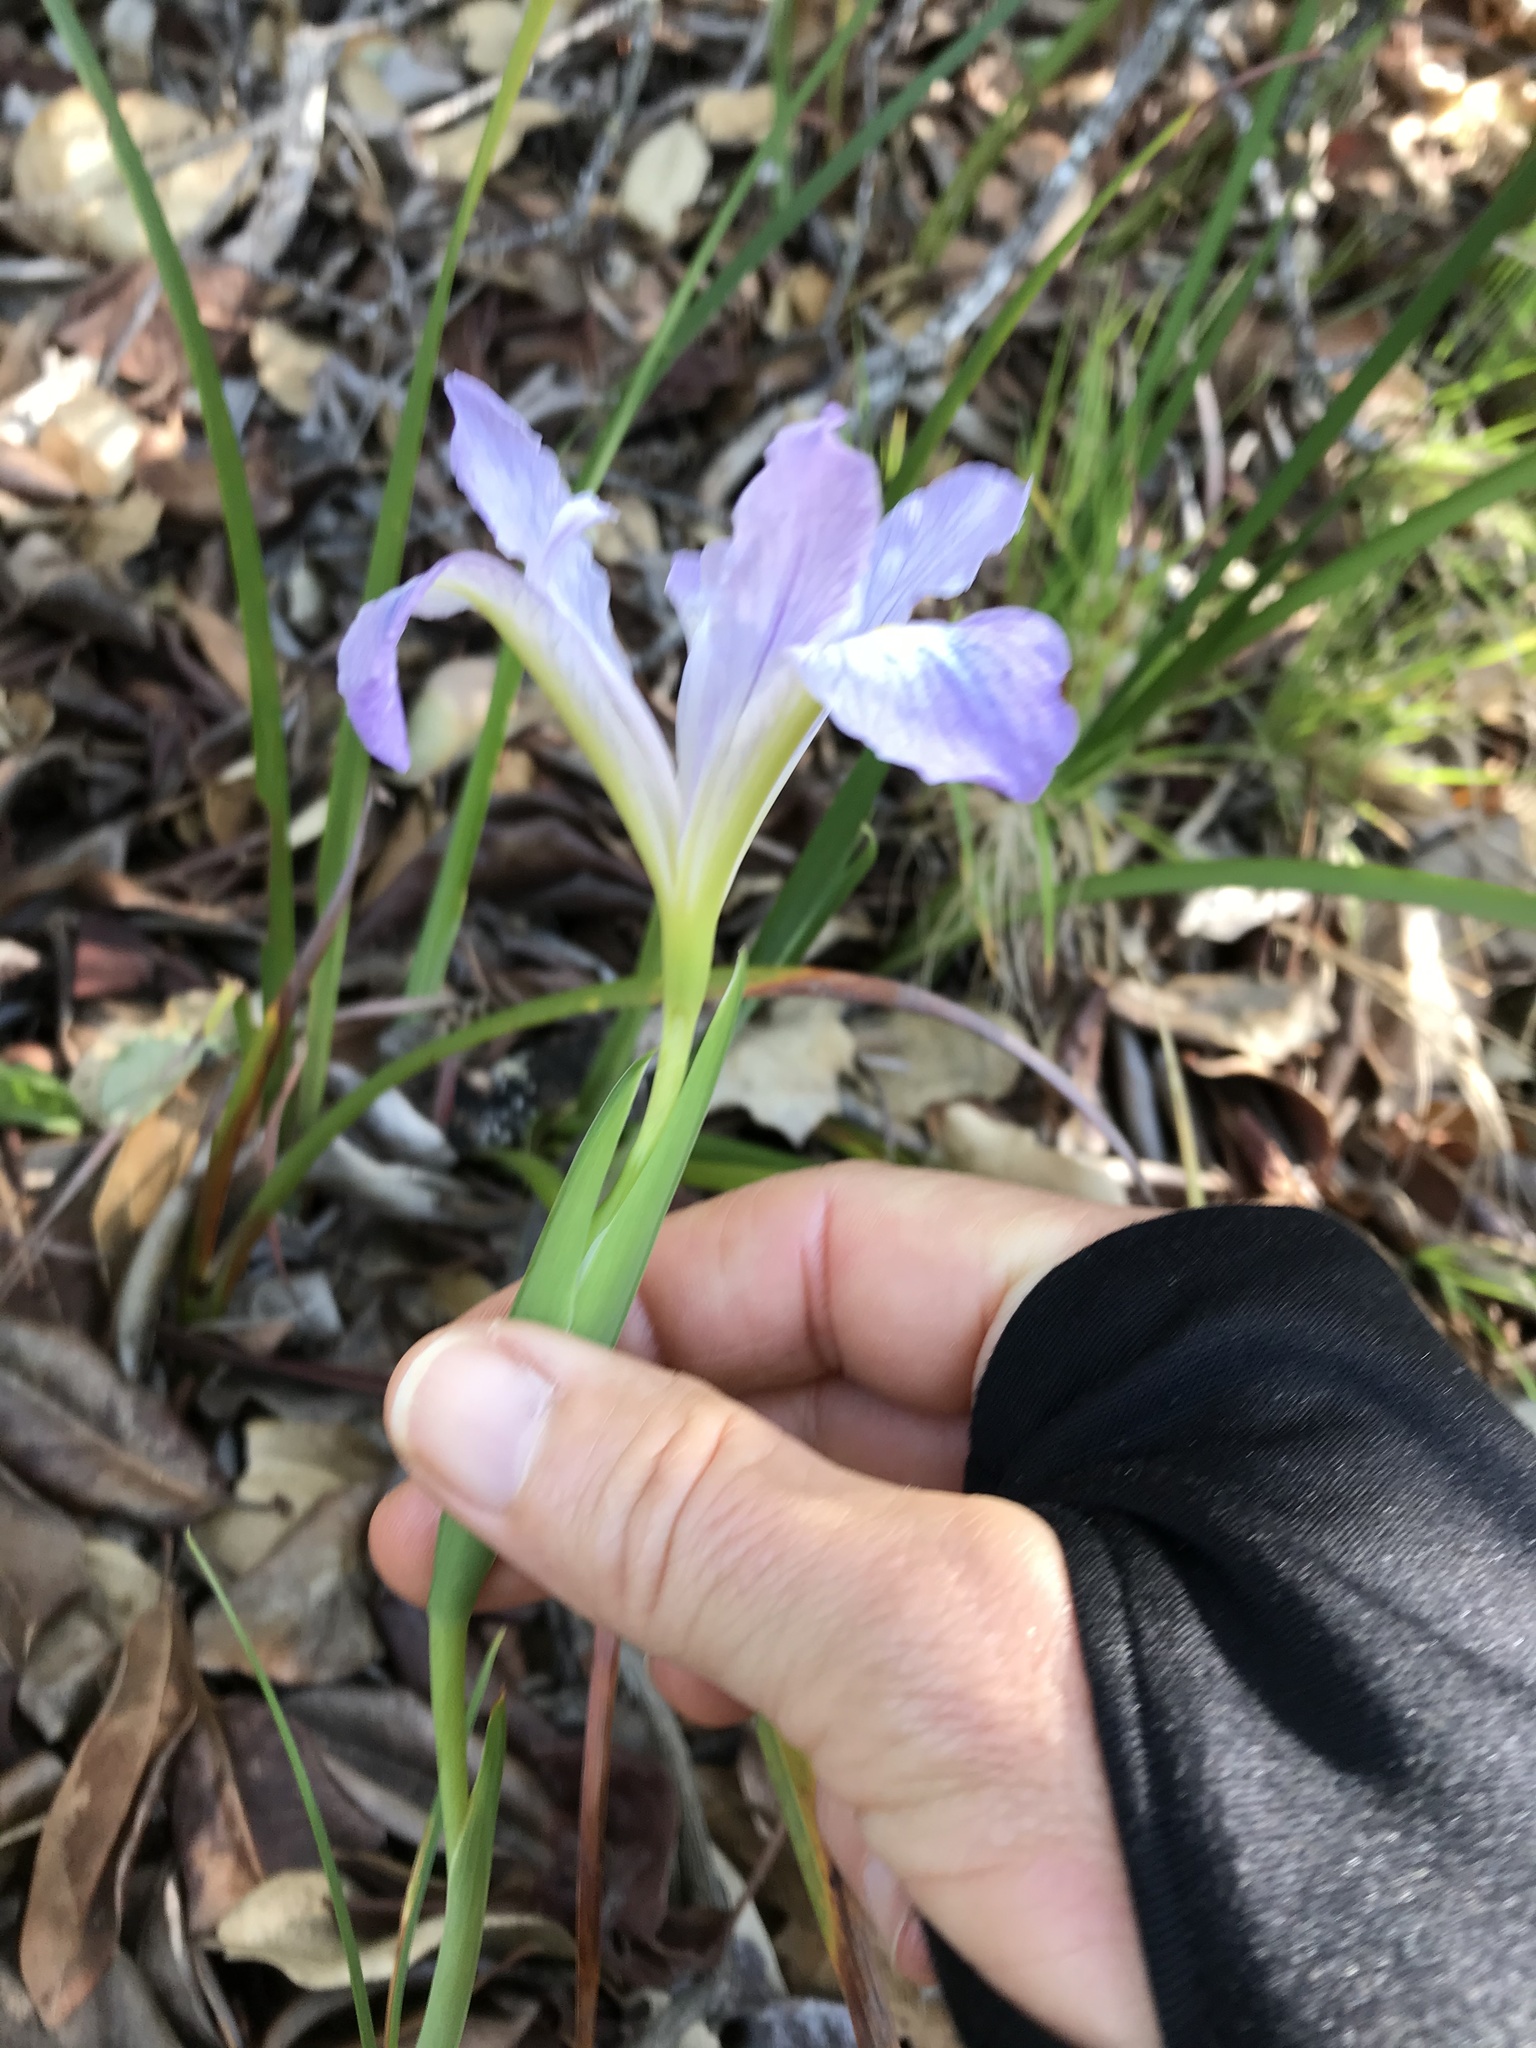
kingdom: Plantae
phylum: Tracheophyta
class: Liliopsida
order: Asparagales
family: Iridaceae
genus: Iris
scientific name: Iris douglasiana
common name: Marin iris
